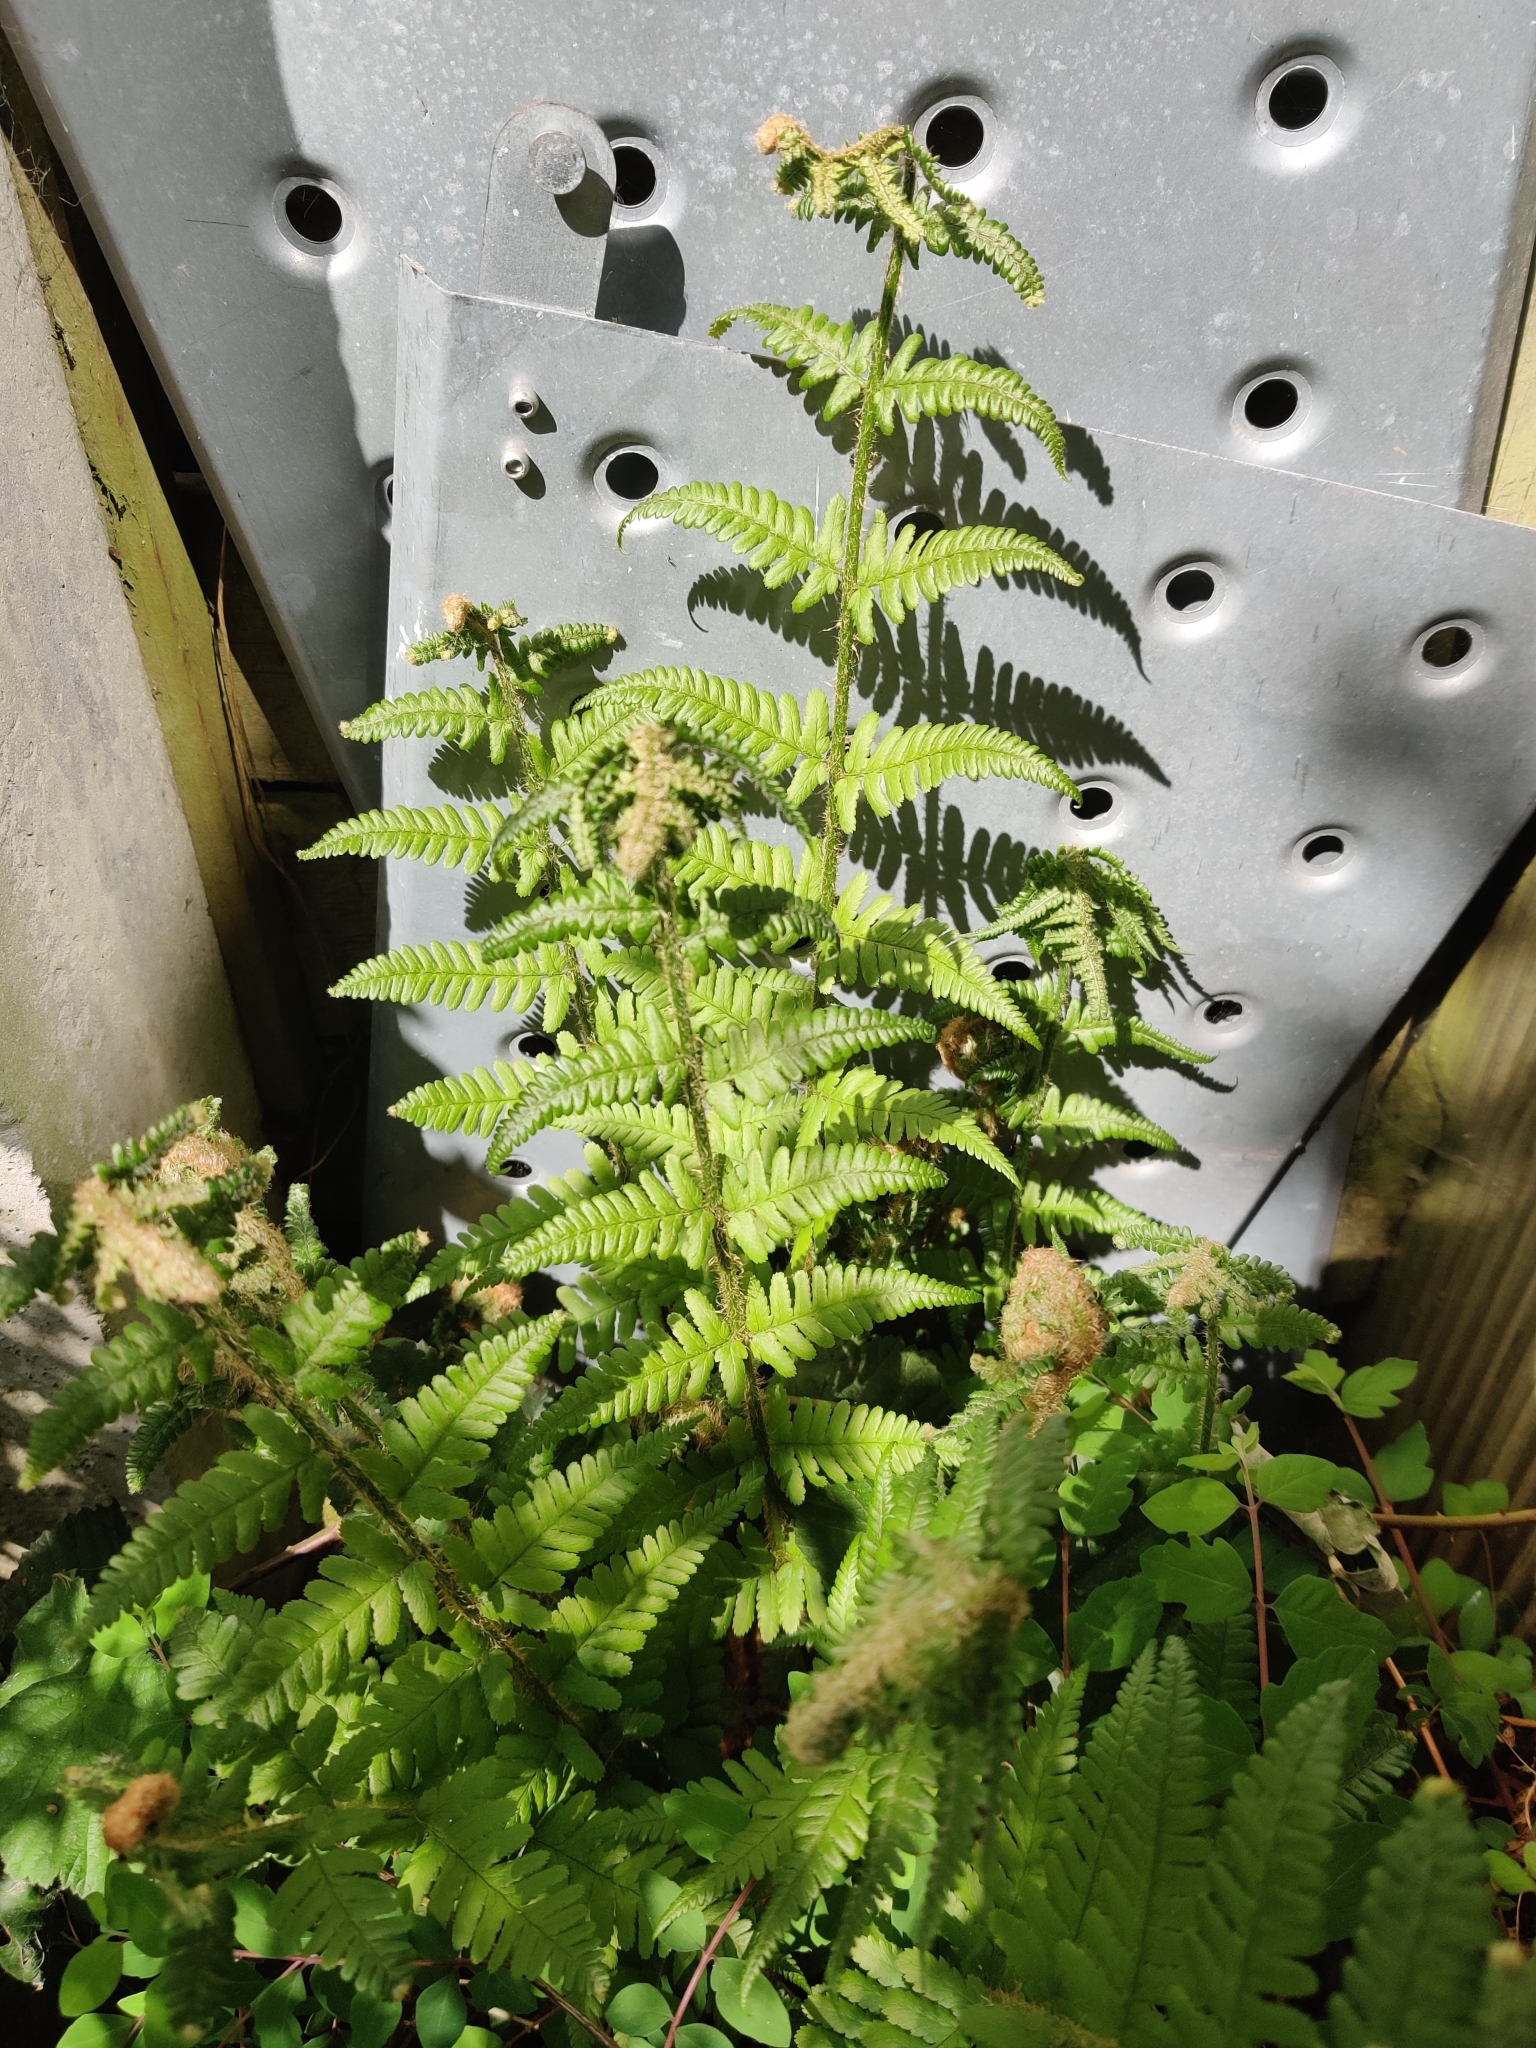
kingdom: Plantae
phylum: Tracheophyta
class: Polypodiopsida
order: Polypodiales
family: Dryopteridaceae
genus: Dryopteris
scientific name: Dryopteris filix-mas
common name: Male fern
